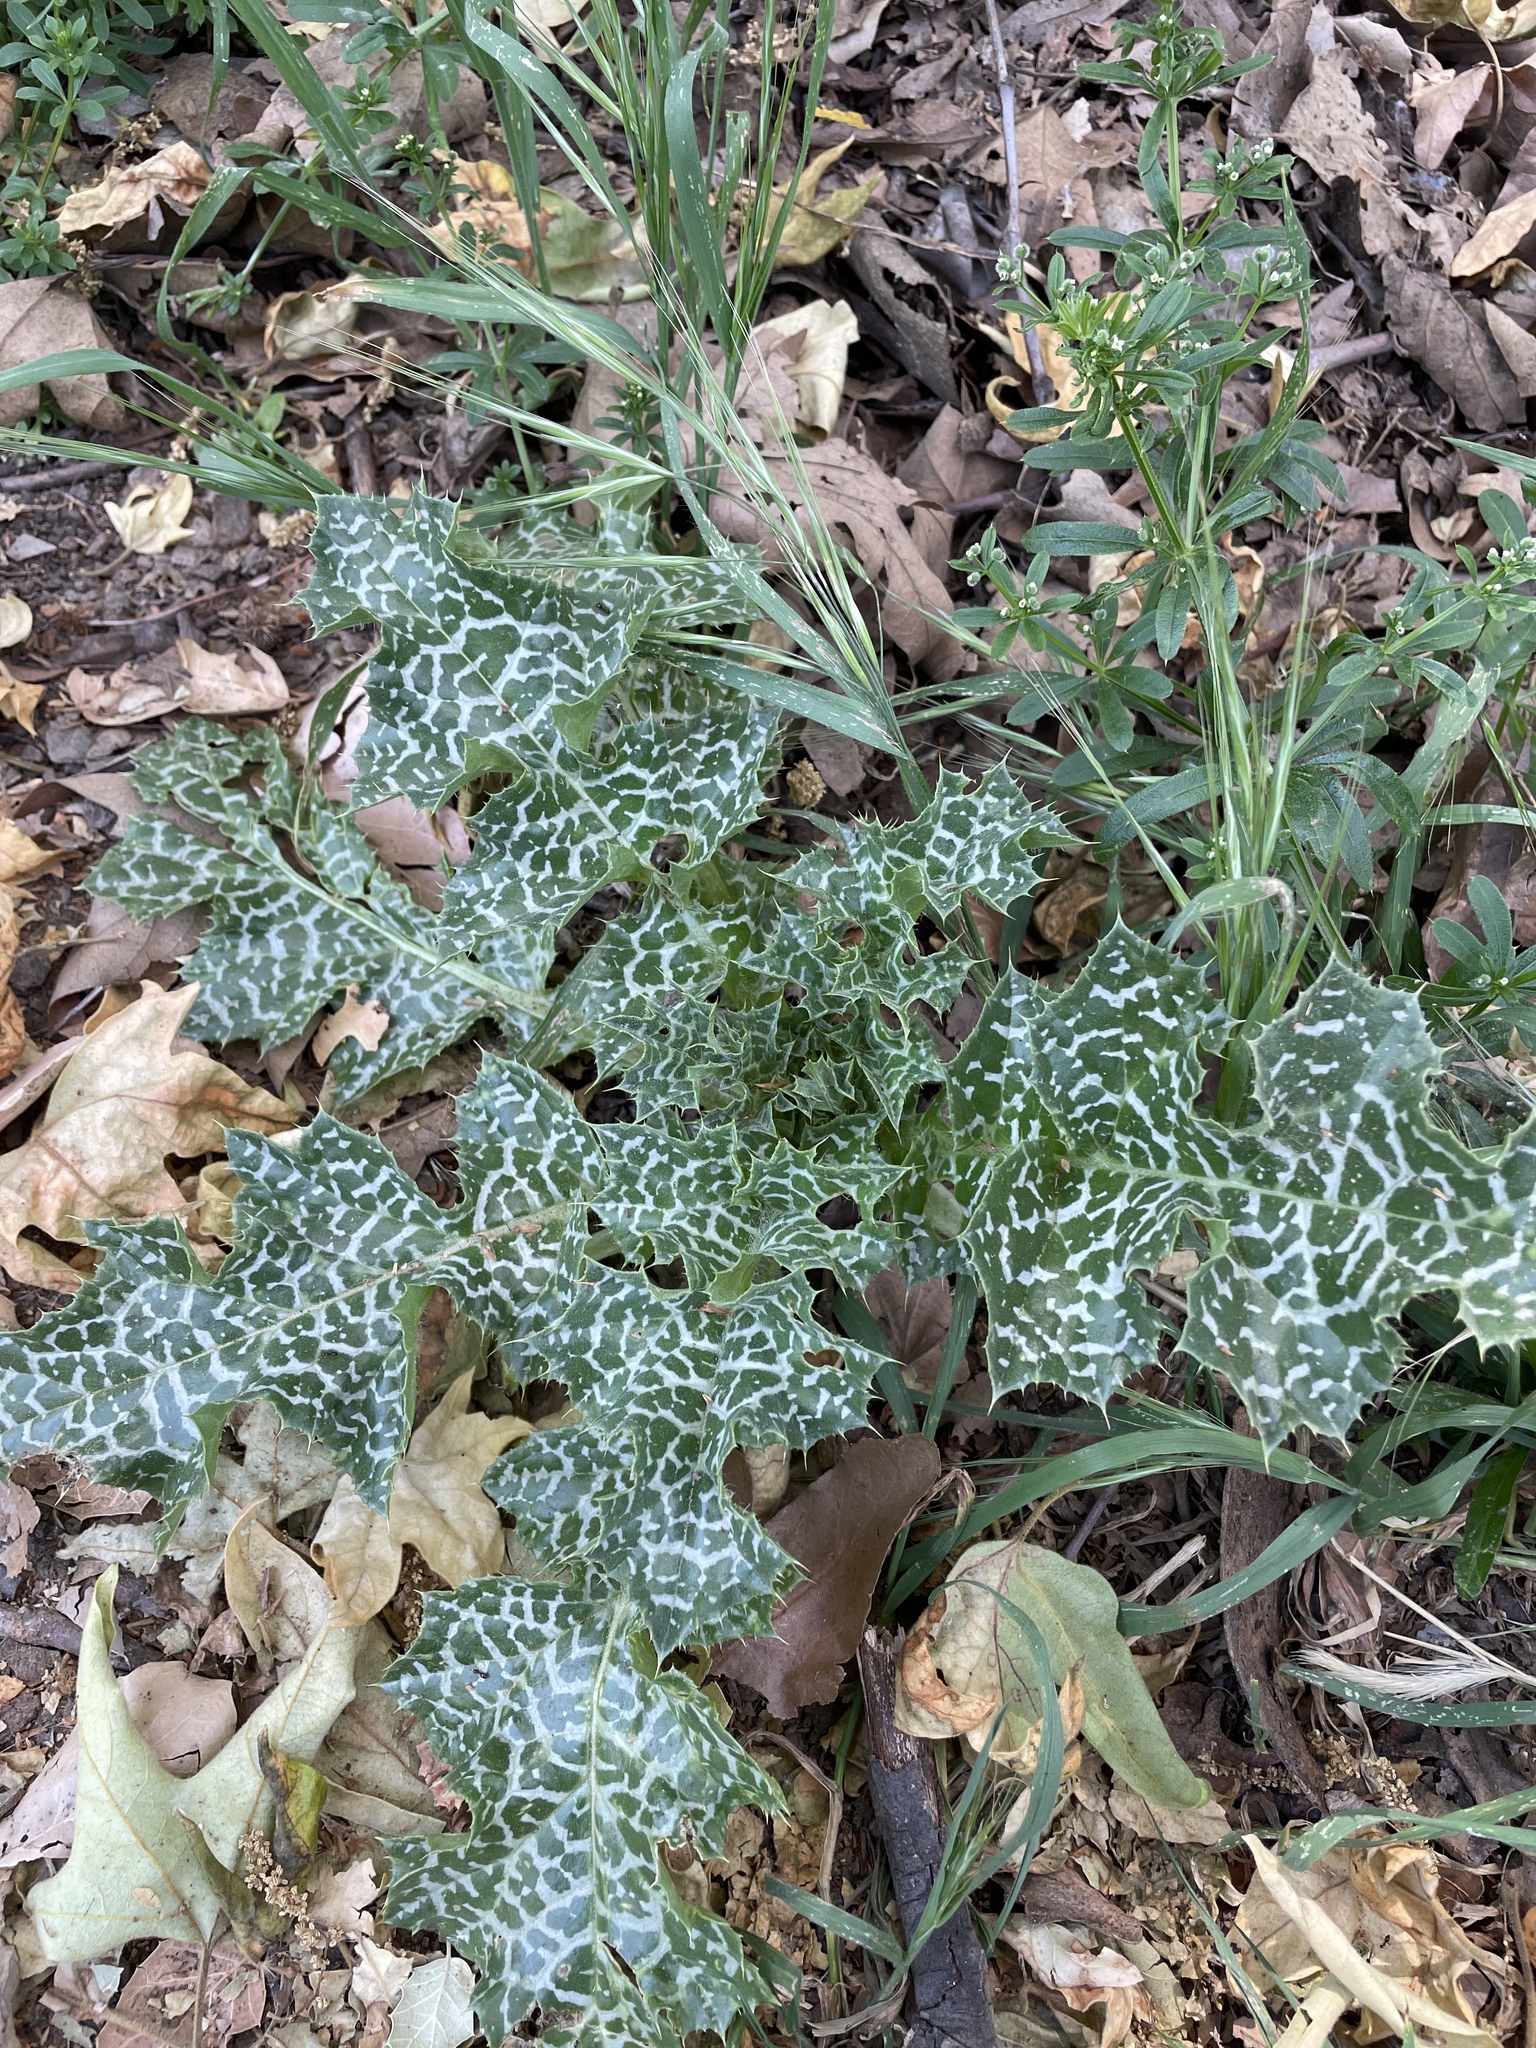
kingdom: Plantae
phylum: Tracheophyta
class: Magnoliopsida
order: Asterales
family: Asteraceae
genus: Silybum
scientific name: Silybum marianum
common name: Milk thistle
